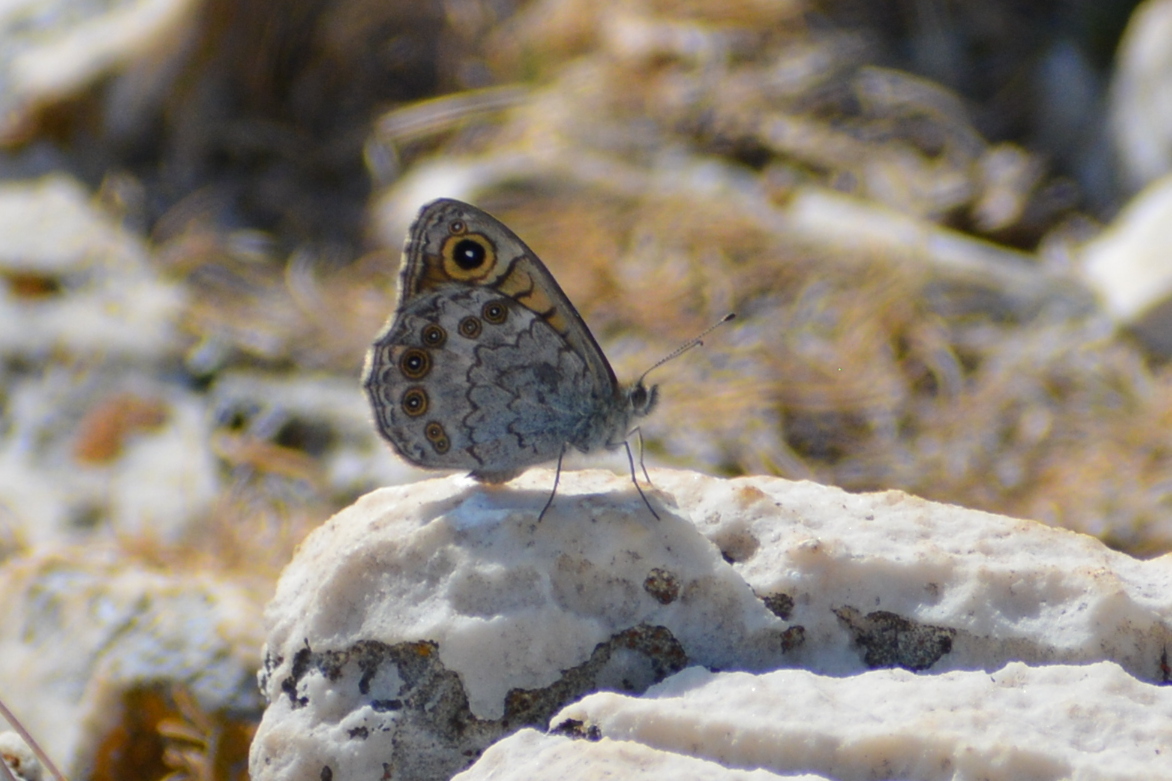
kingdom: Animalia
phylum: Arthropoda
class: Insecta
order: Lepidoptera
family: Nymphalidae
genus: Pararge
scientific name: Pararge Lasiommata megera
